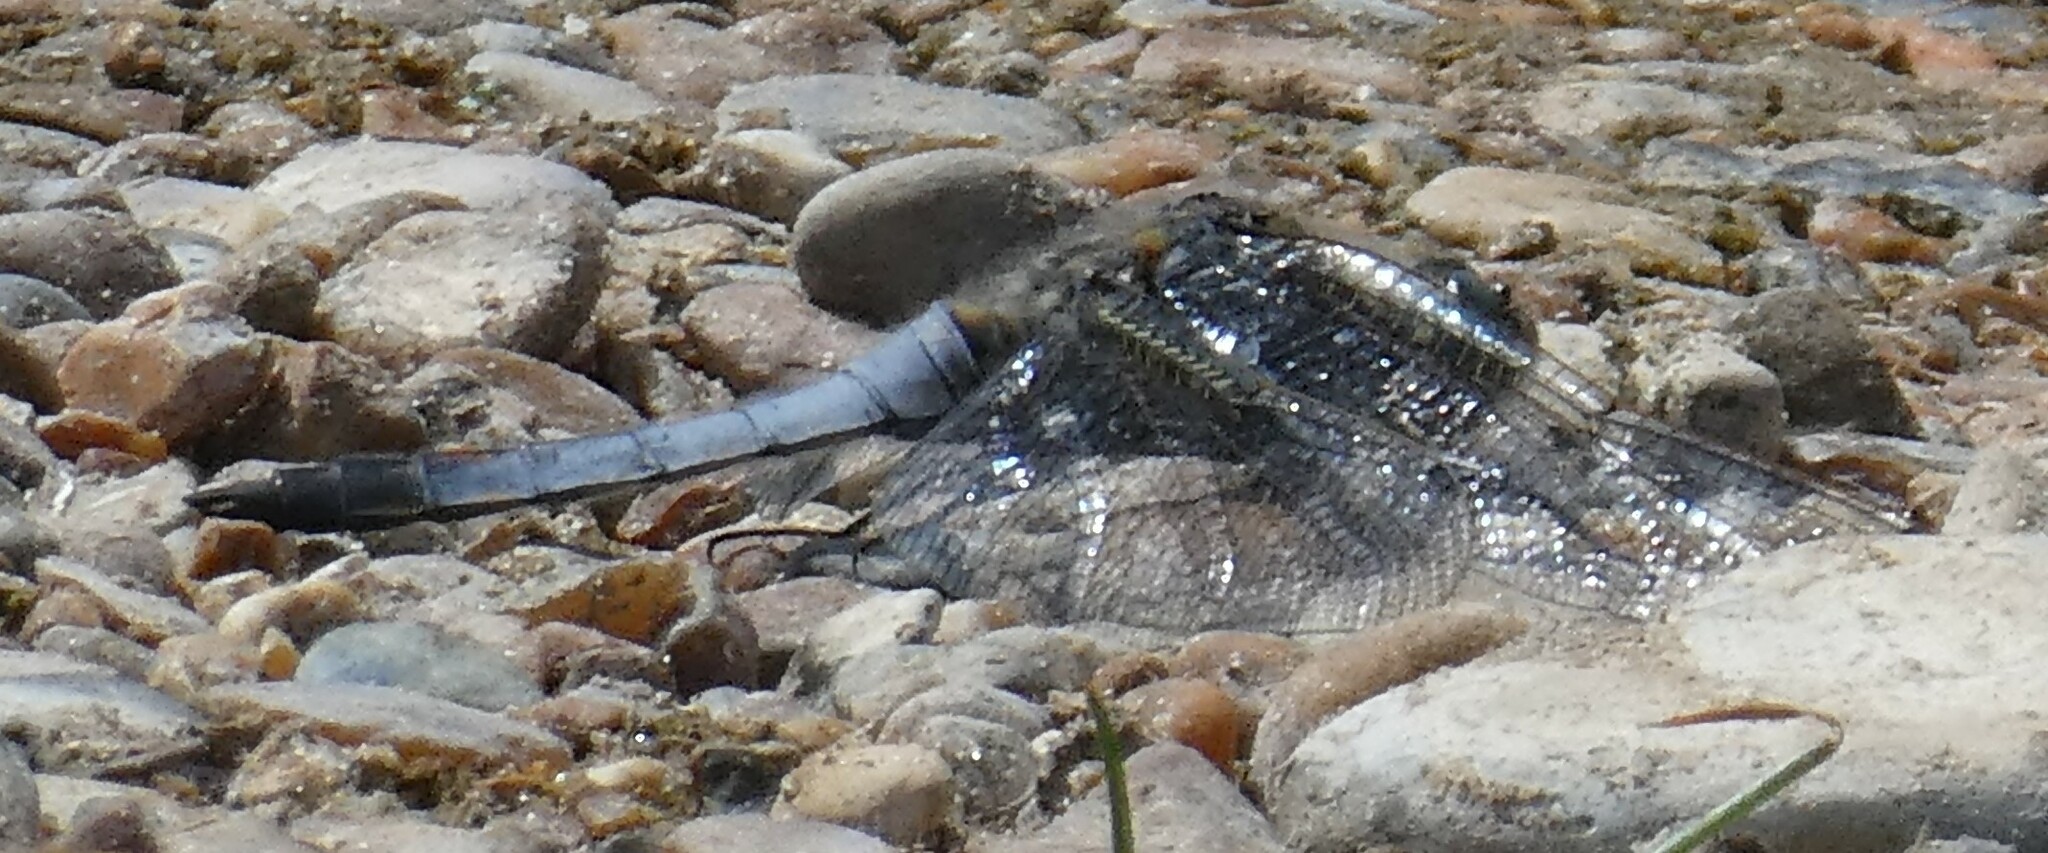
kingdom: Animalia
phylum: Arthropoda
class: Insecta
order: Odonata
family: Libellulidae
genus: Orthetrum
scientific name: Orthetrum cancellatum
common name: Black-tailed skimmer
